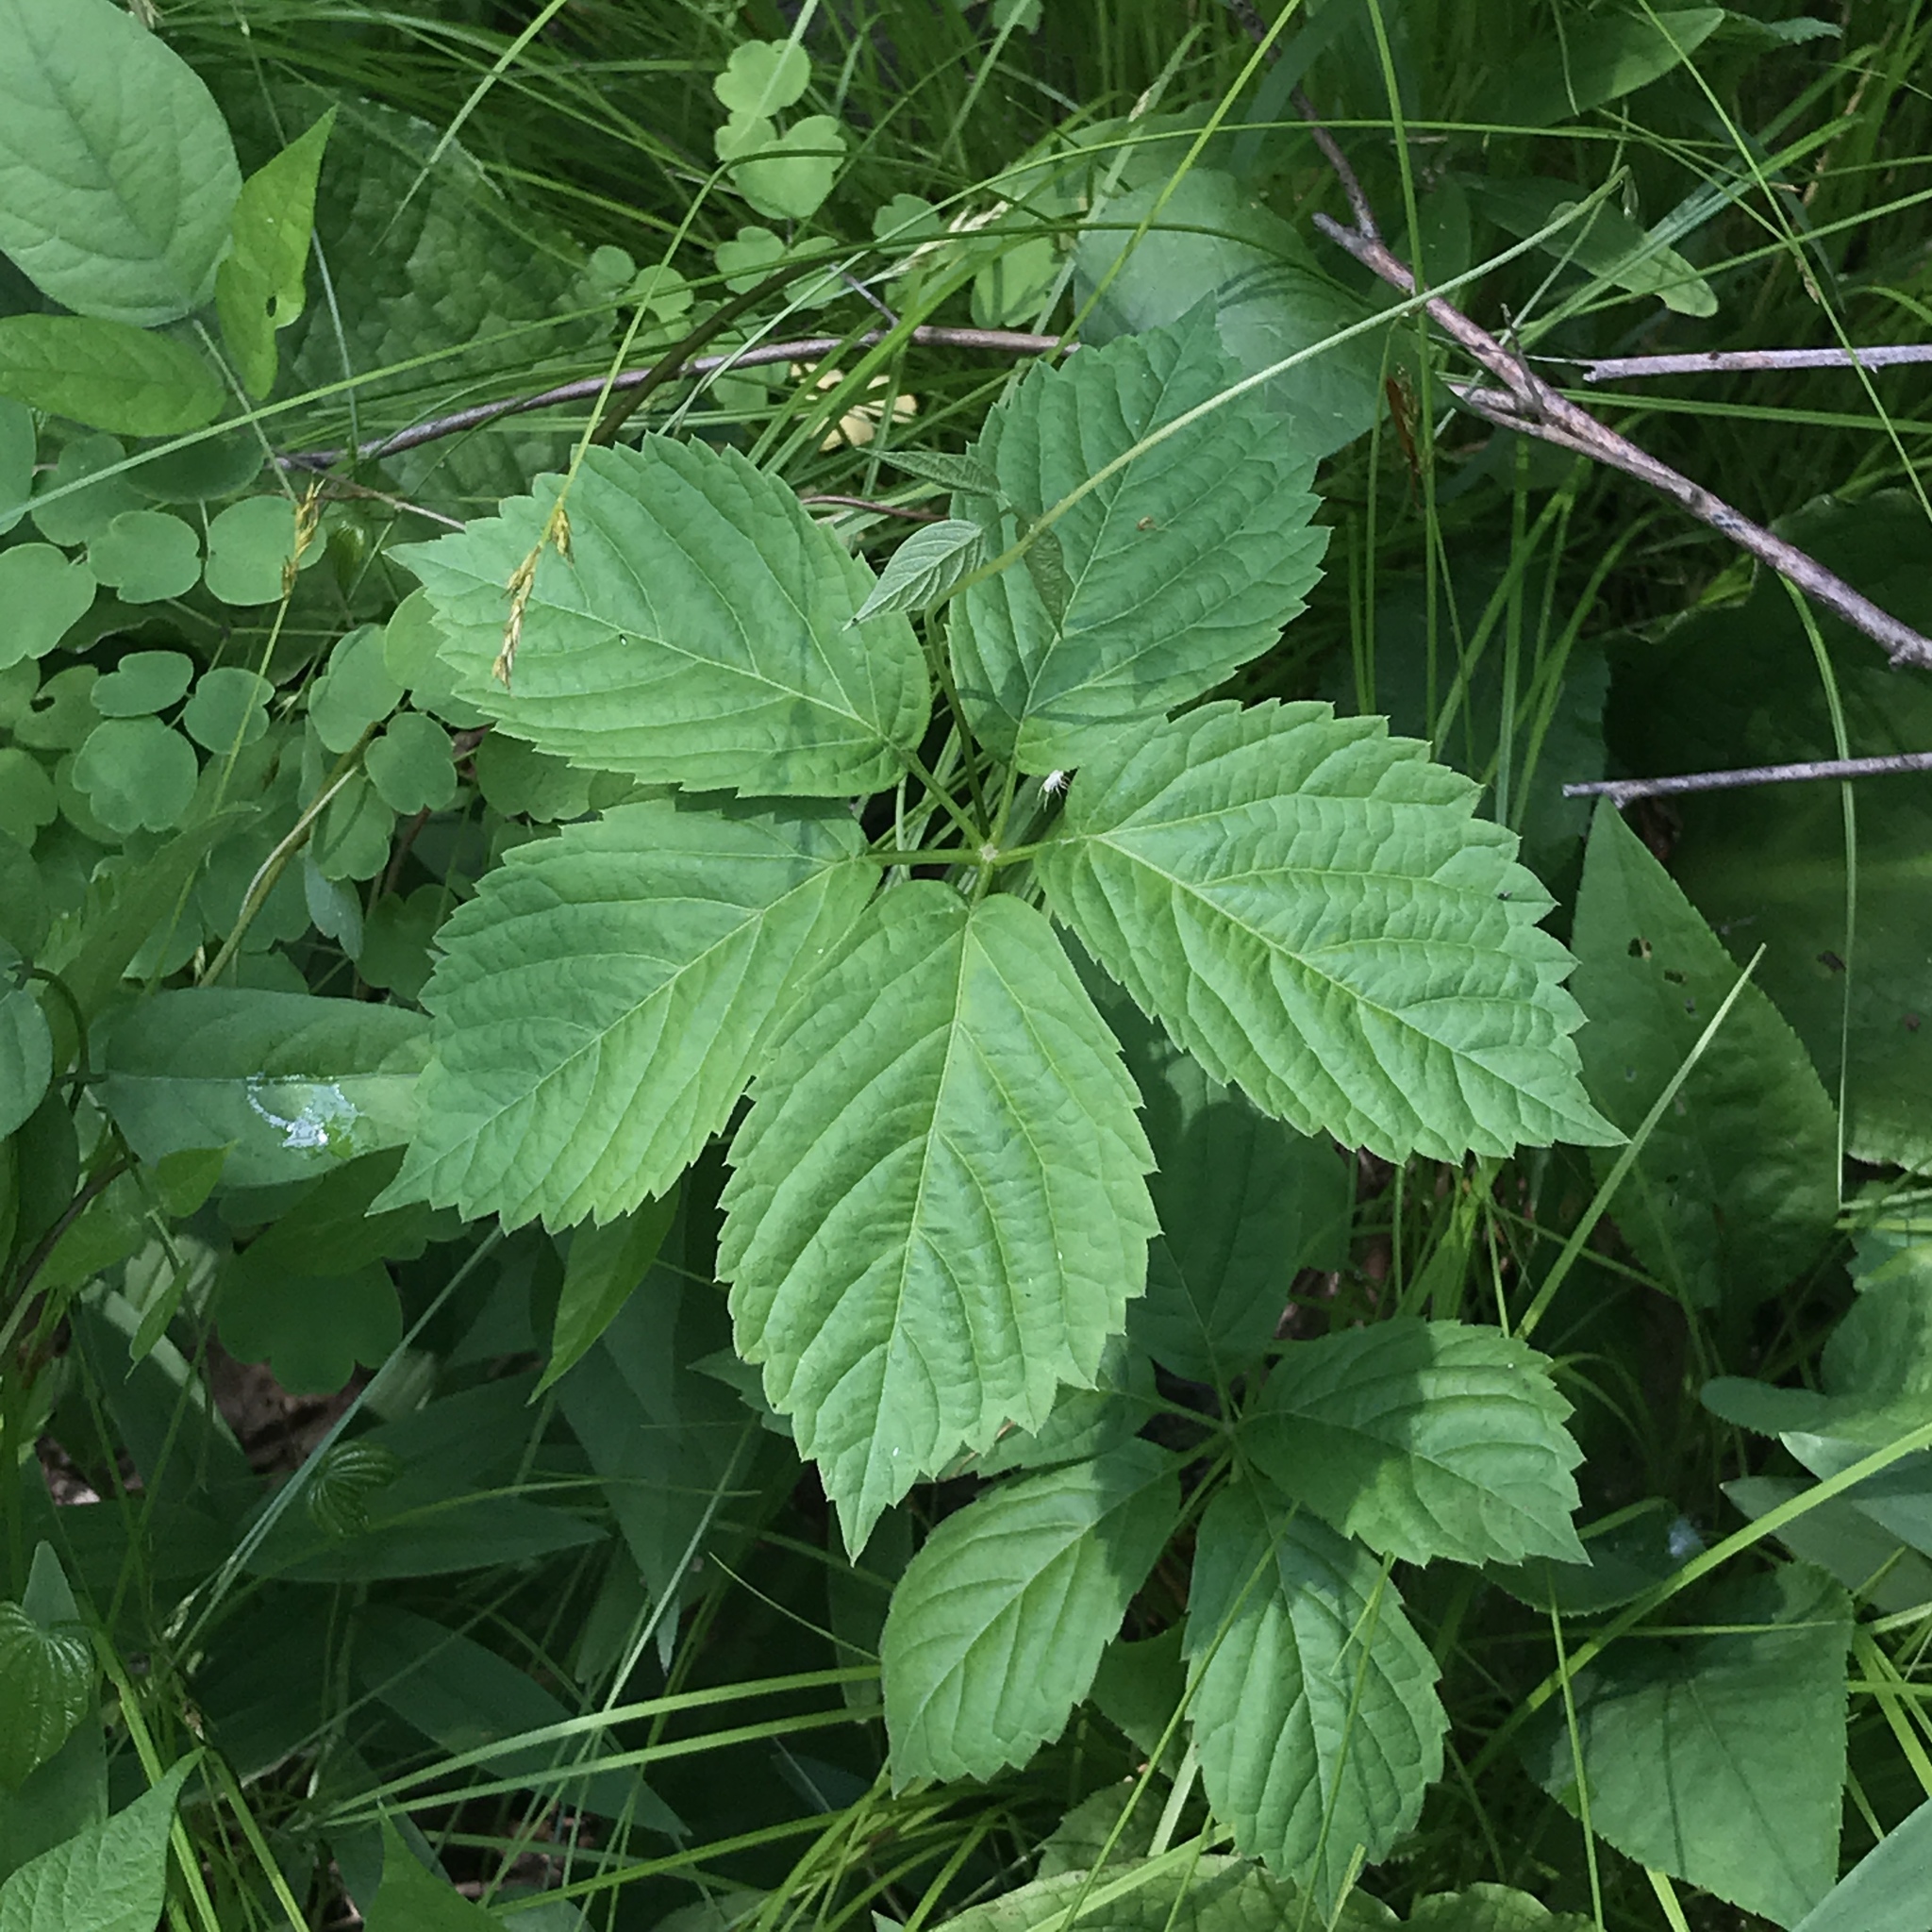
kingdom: Plantae
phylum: Tracheophyta
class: Magnoliopsida
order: Vitales
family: Vitaceae
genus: Parthenocissus
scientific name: Parthenocissus inserta
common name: False virginia-creeper
